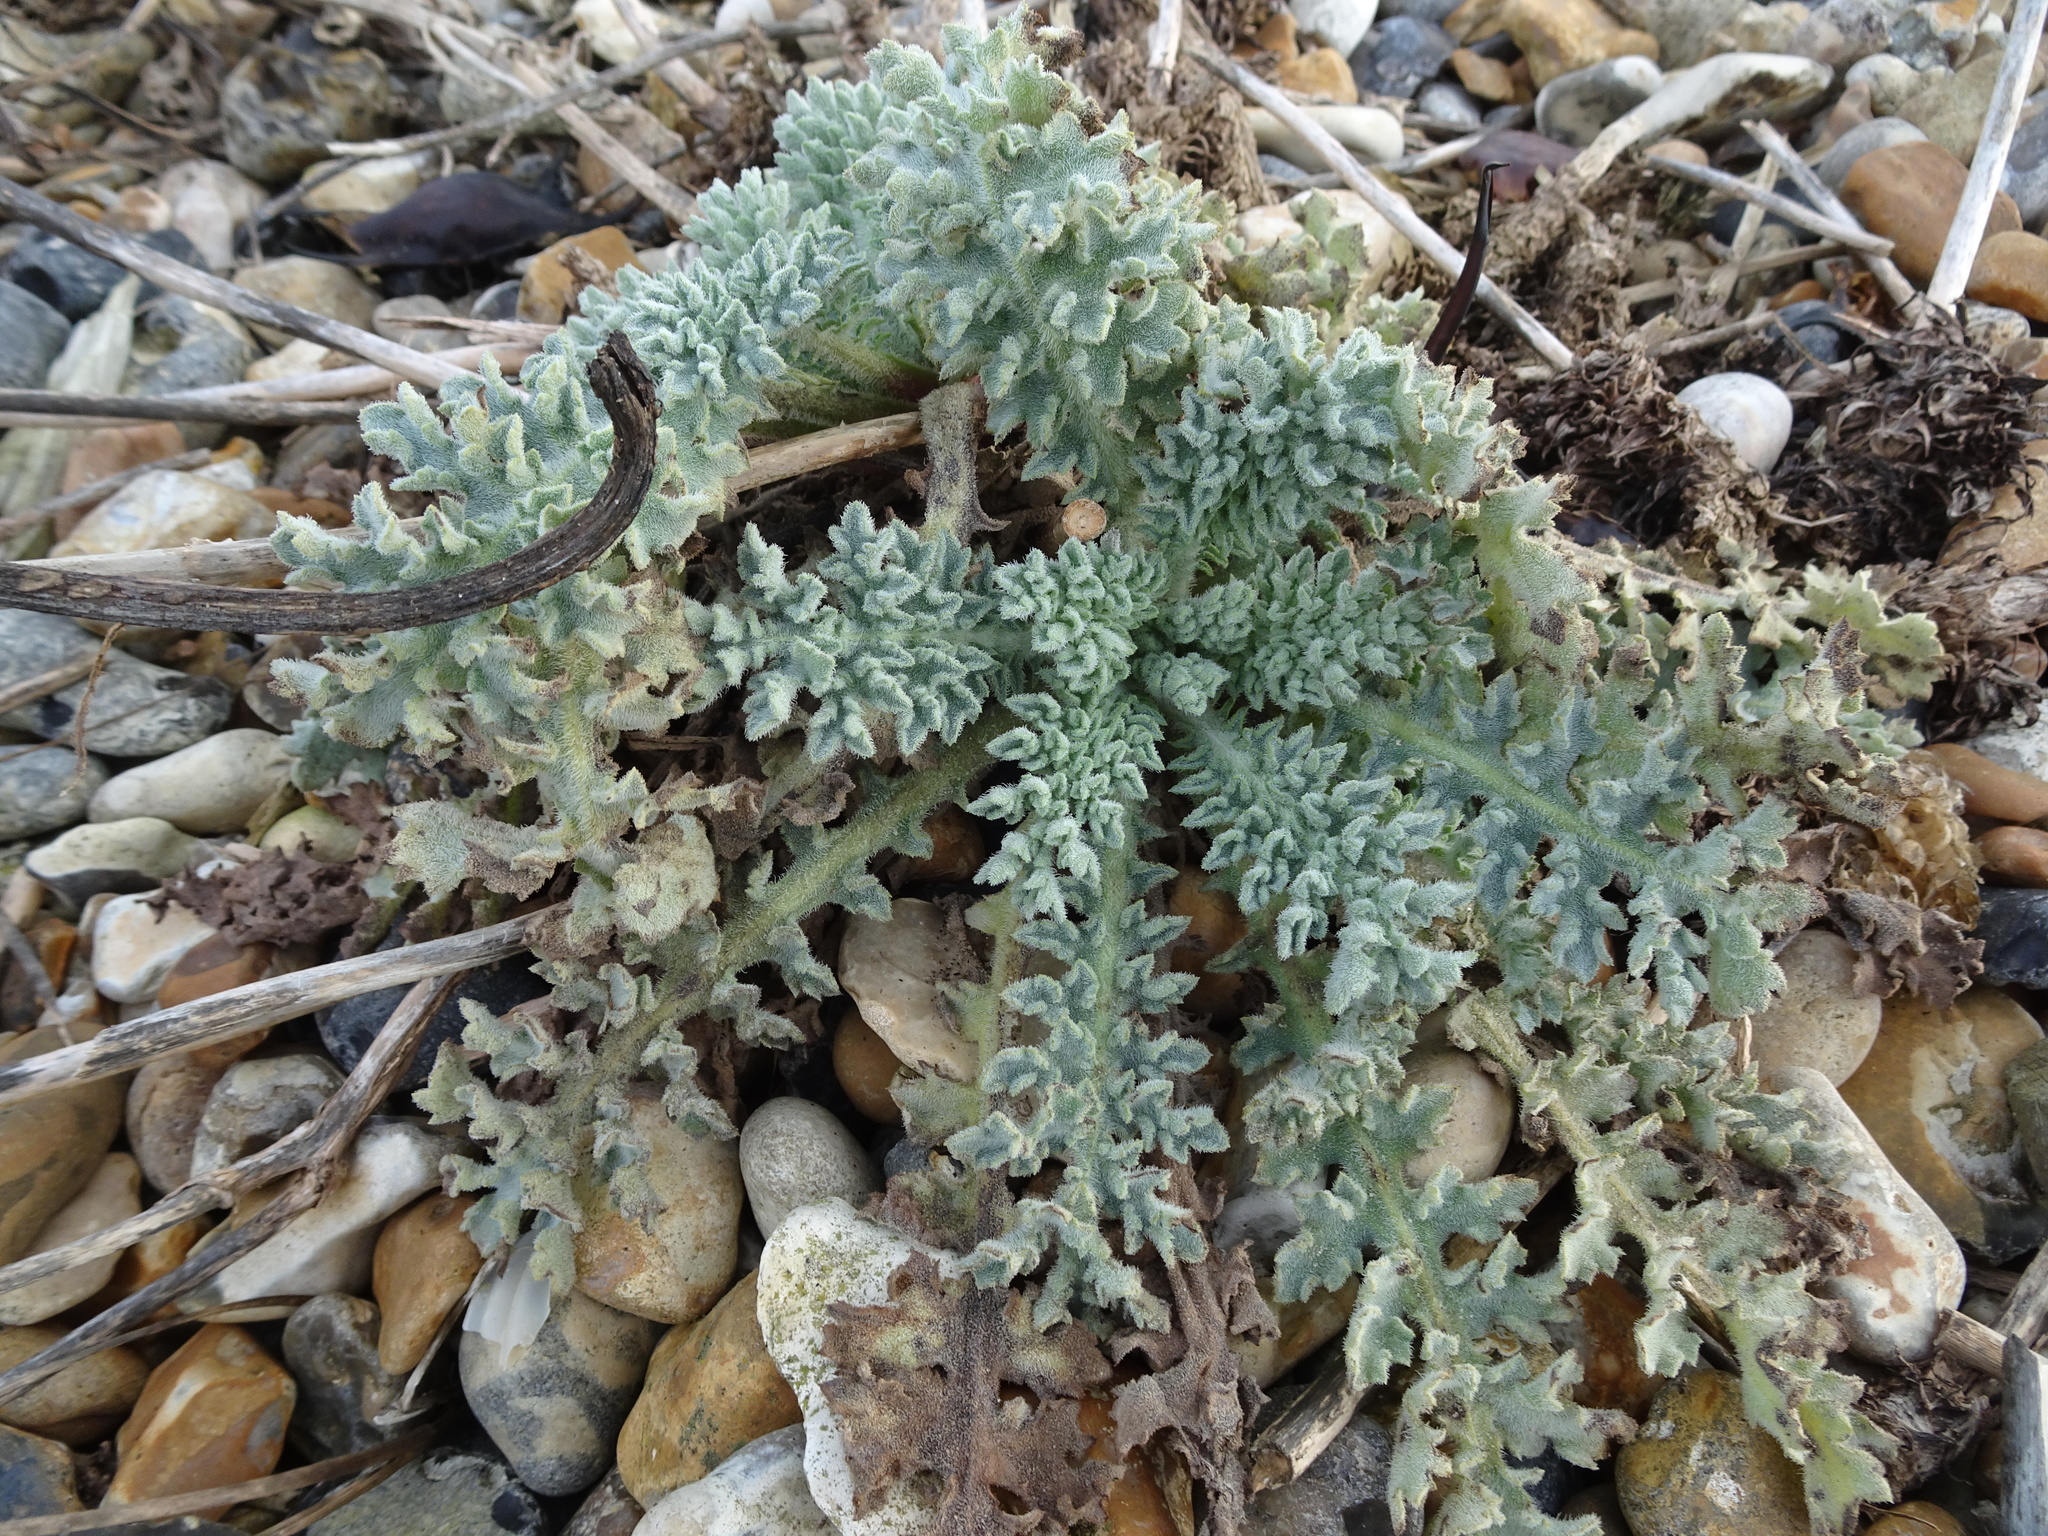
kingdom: Plantae
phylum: Tracheophyta
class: Magnoliopsida
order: Ranunculales
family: Papaveraceae
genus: Glaucium
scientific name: Glaucium flavum
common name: Yellow horned-poppy
